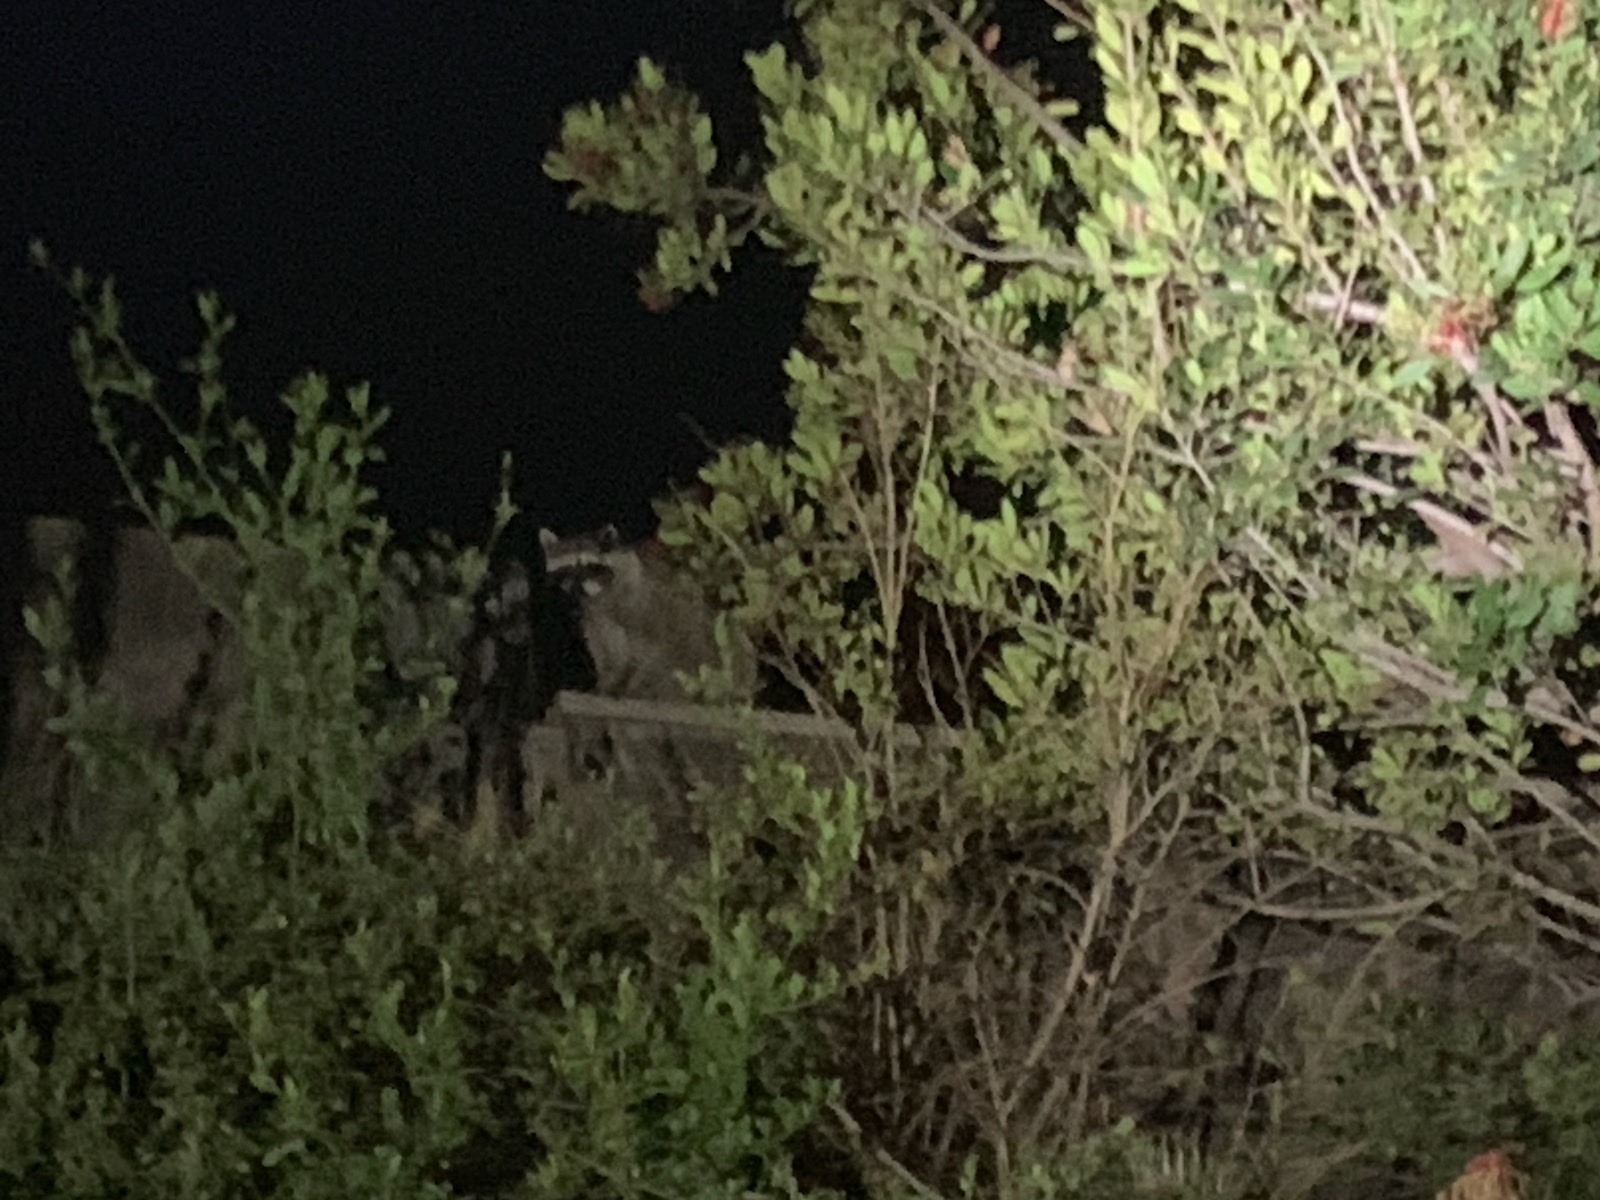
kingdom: Animalia
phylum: Chordata
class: Mammalia
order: Carnivora
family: Procyonidae
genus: Procyon
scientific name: Procyon lotor
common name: Raccoon
